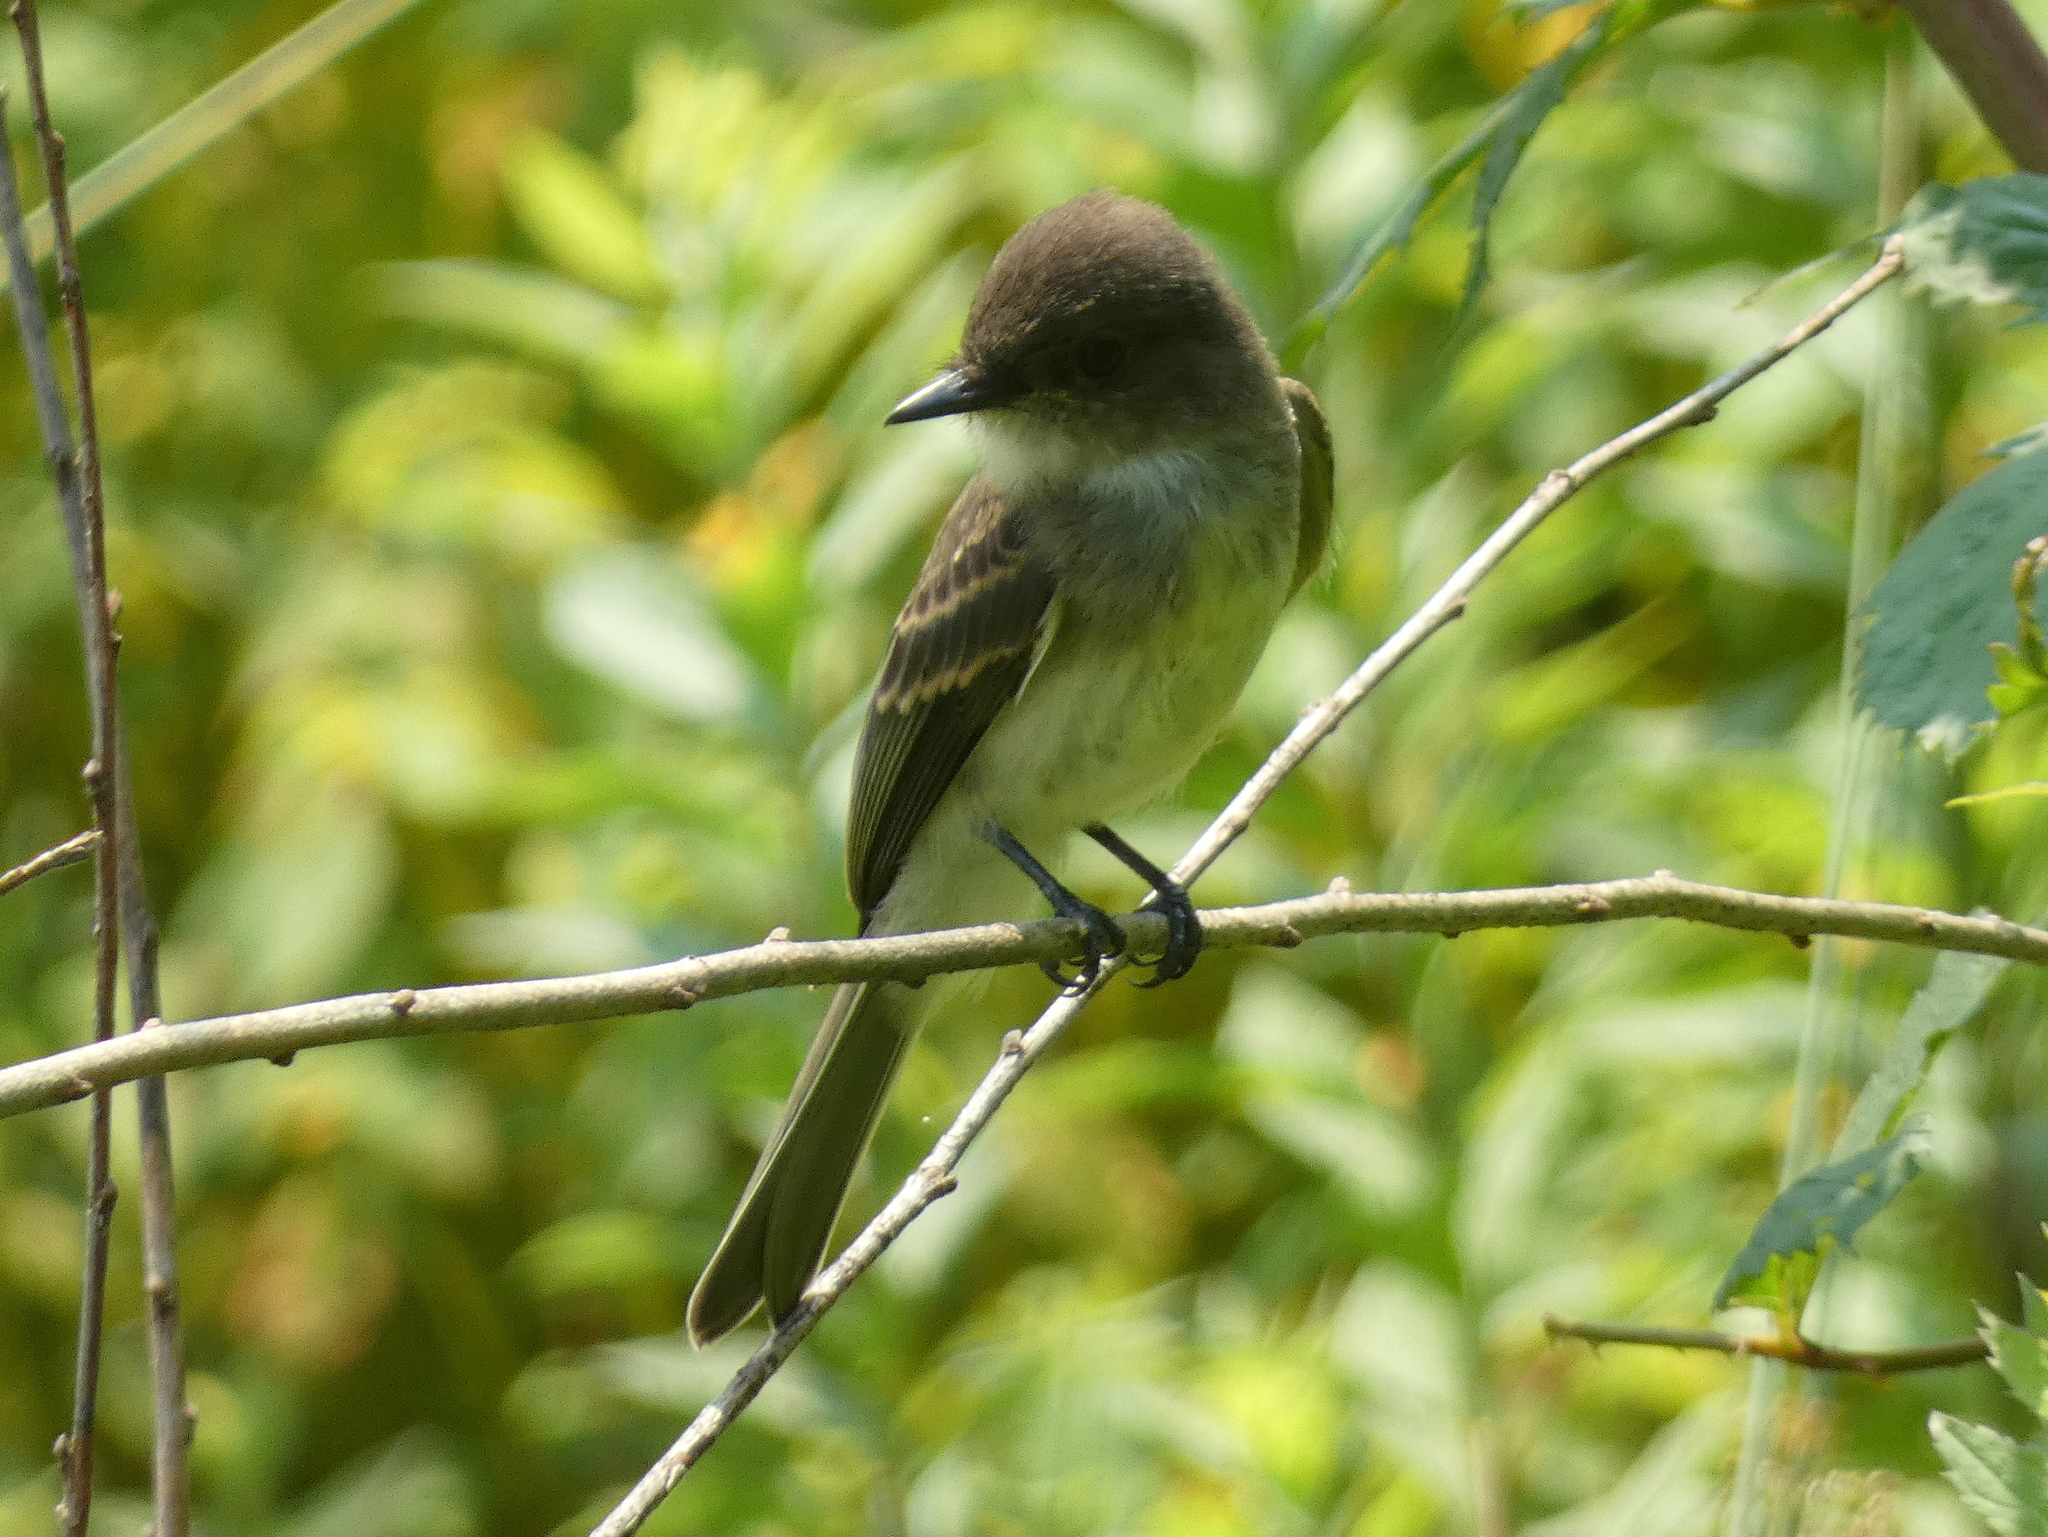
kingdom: Animalia
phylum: Chordata
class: Aves
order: Passeriformes
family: Tyrannidae
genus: Sayornis
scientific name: Sayornis phoebe
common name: Eastern phoebe
